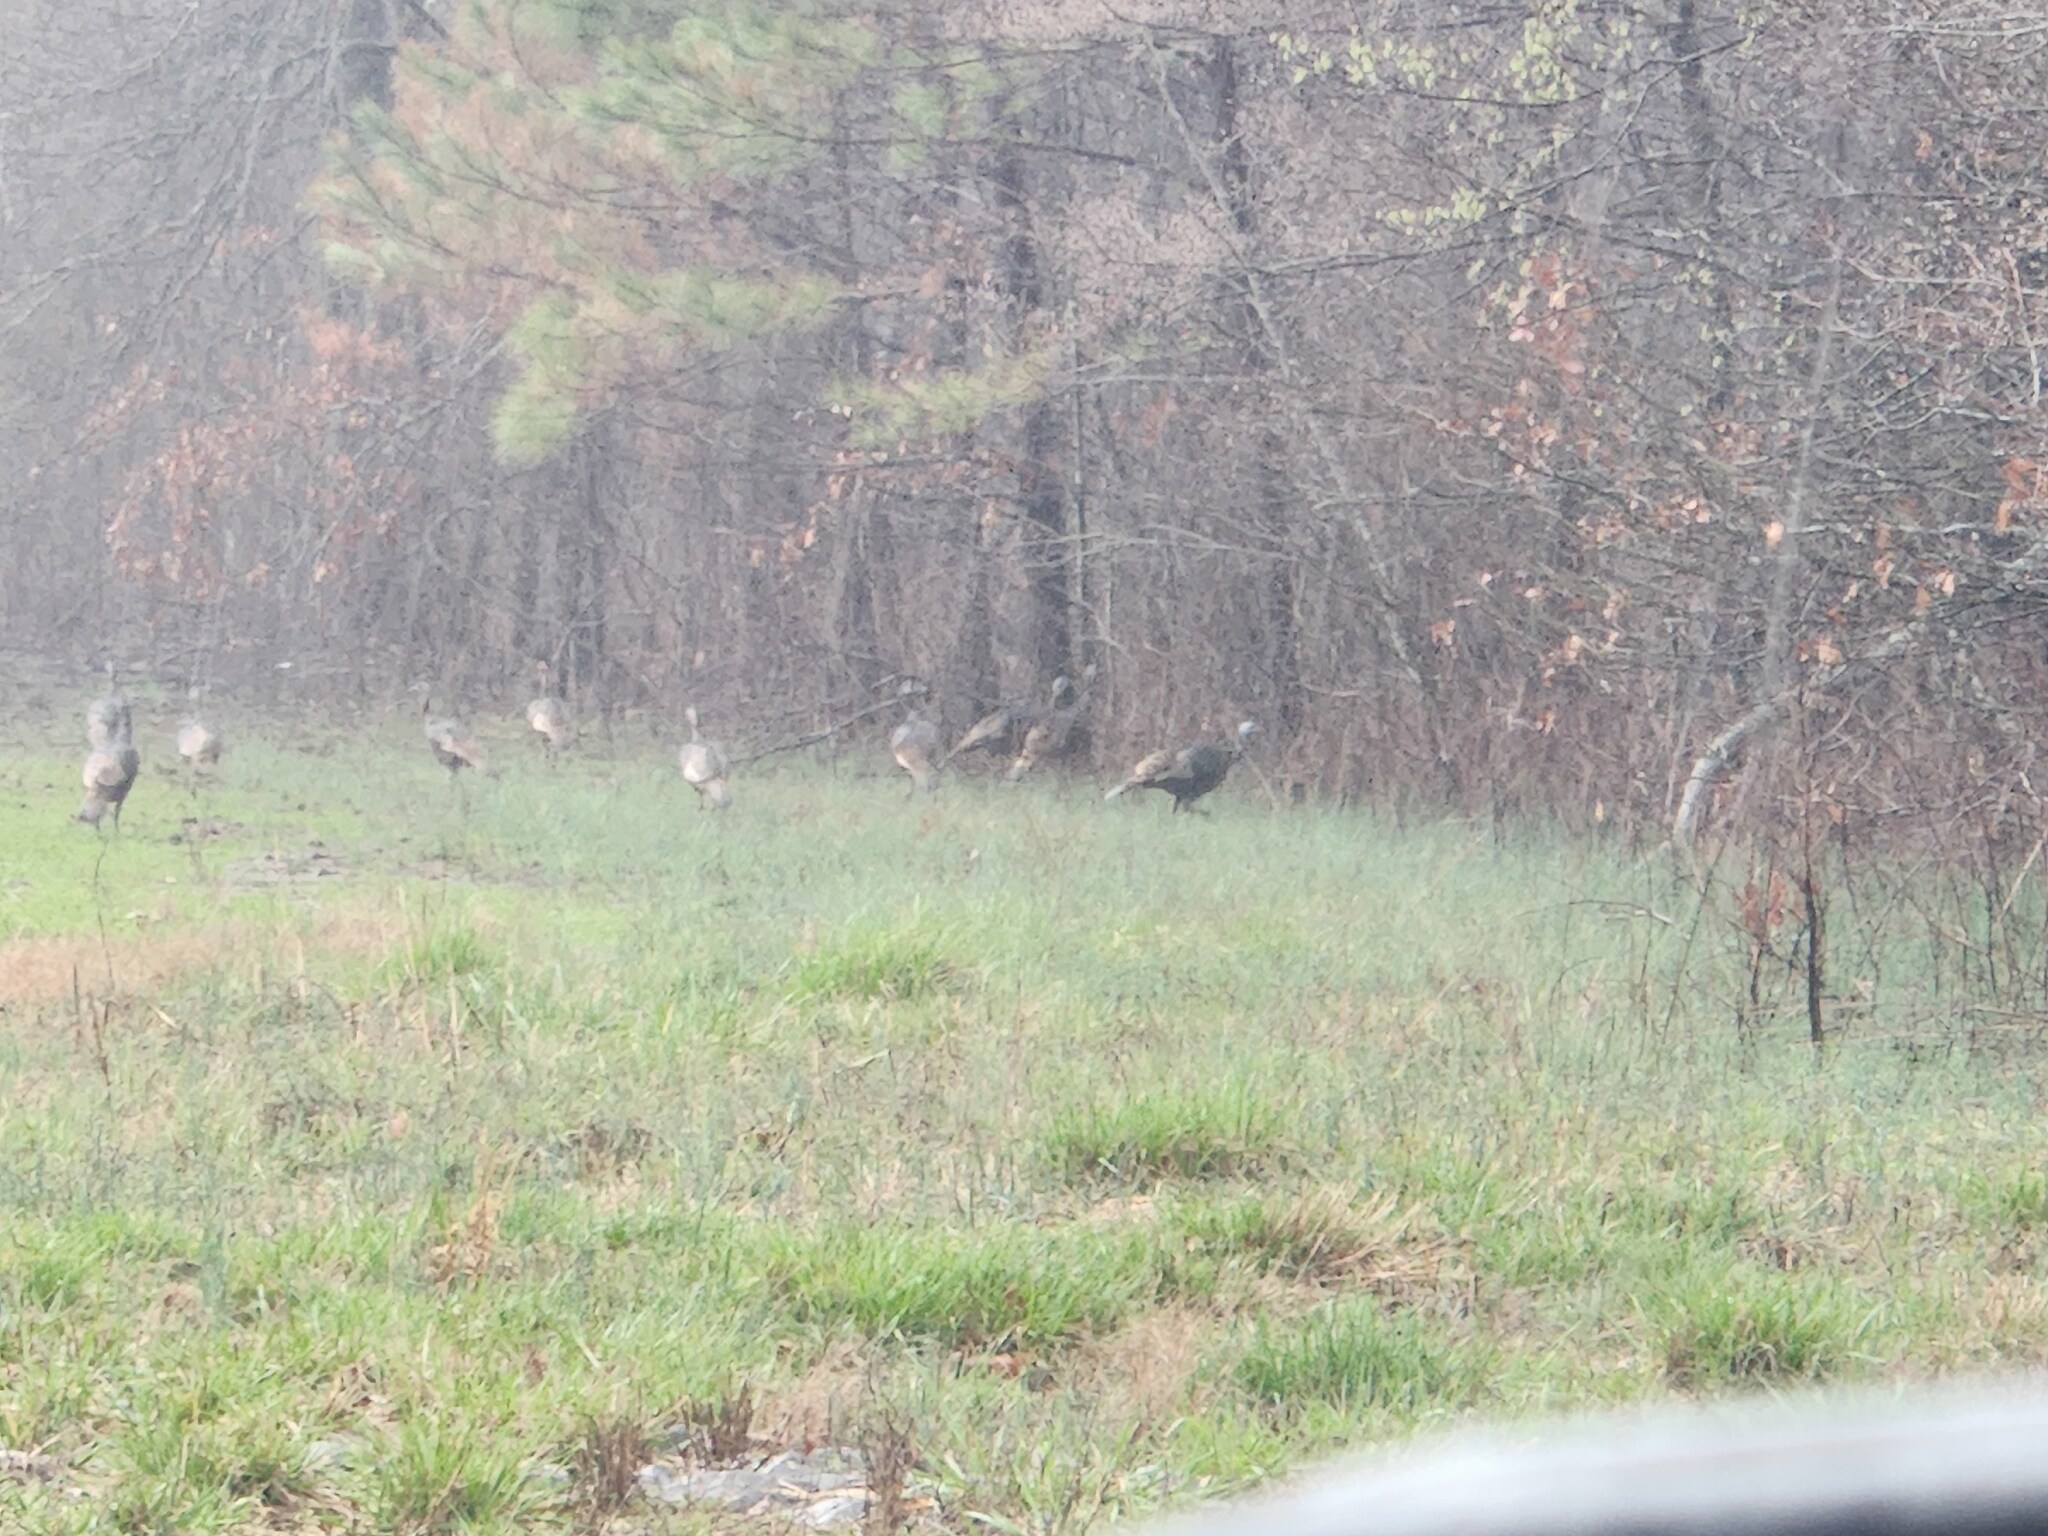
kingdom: Animalia
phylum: Chordata
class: Aves
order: Galliformes
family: Phasianidae
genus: Meleagris
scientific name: Meleagris gallopavo
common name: Wild turkey
